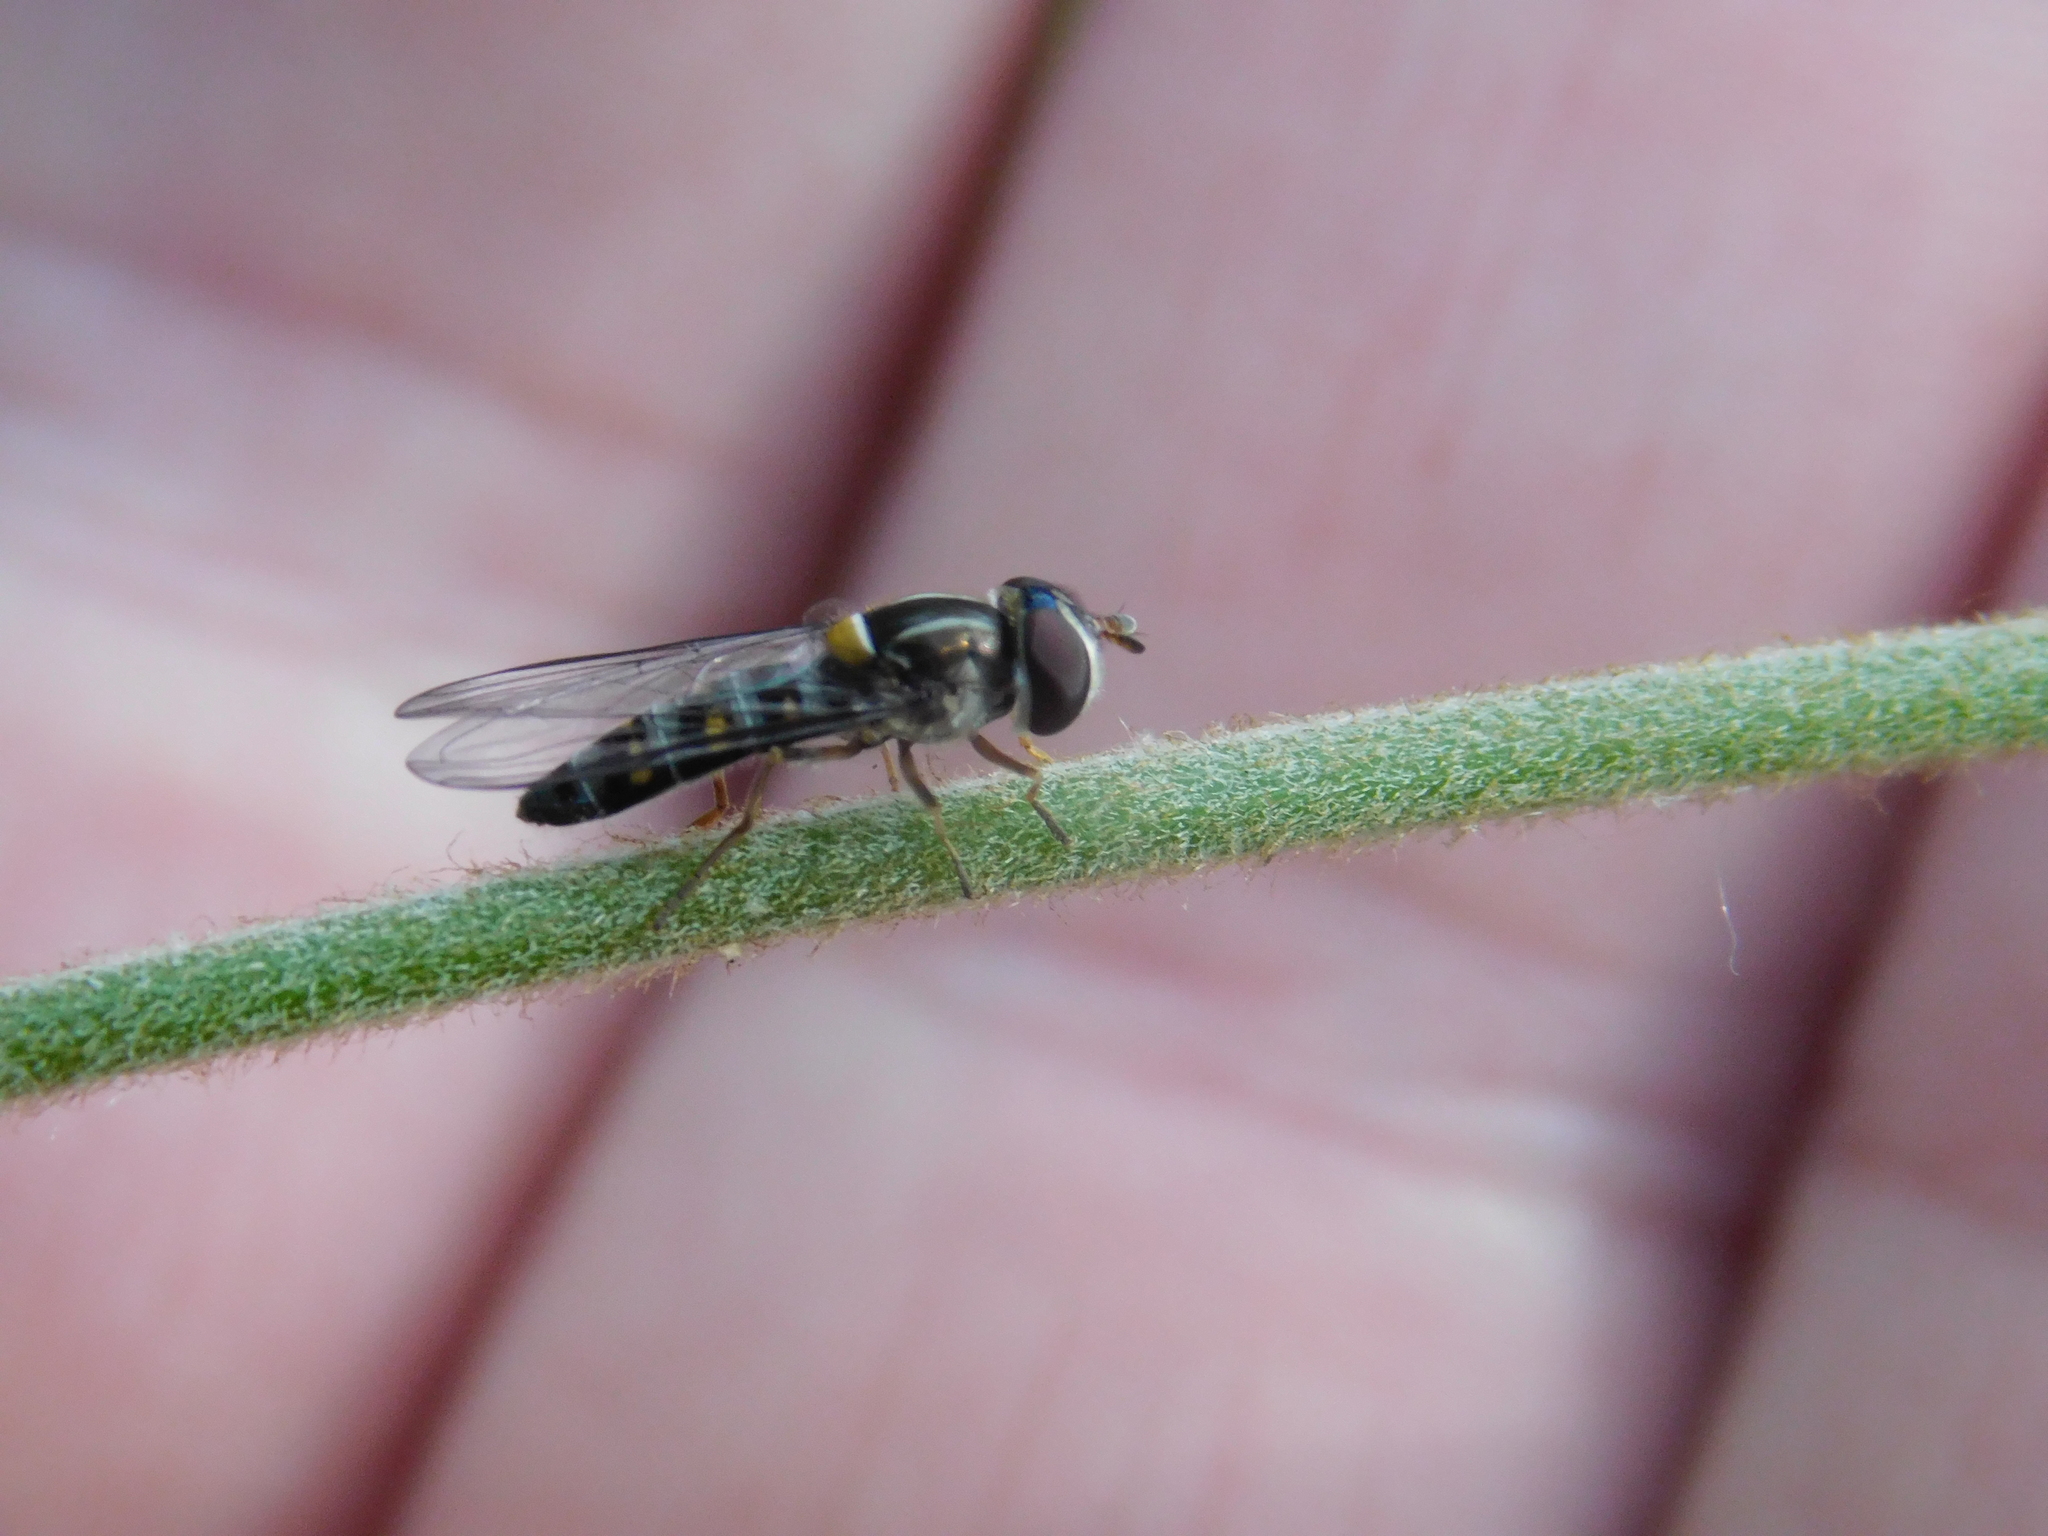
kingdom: Animalia
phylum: Arthropoda
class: Insecta
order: Diptera
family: Syrphidae
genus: Pseudoscaeva
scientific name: Pseudoscaeva meridionalis
